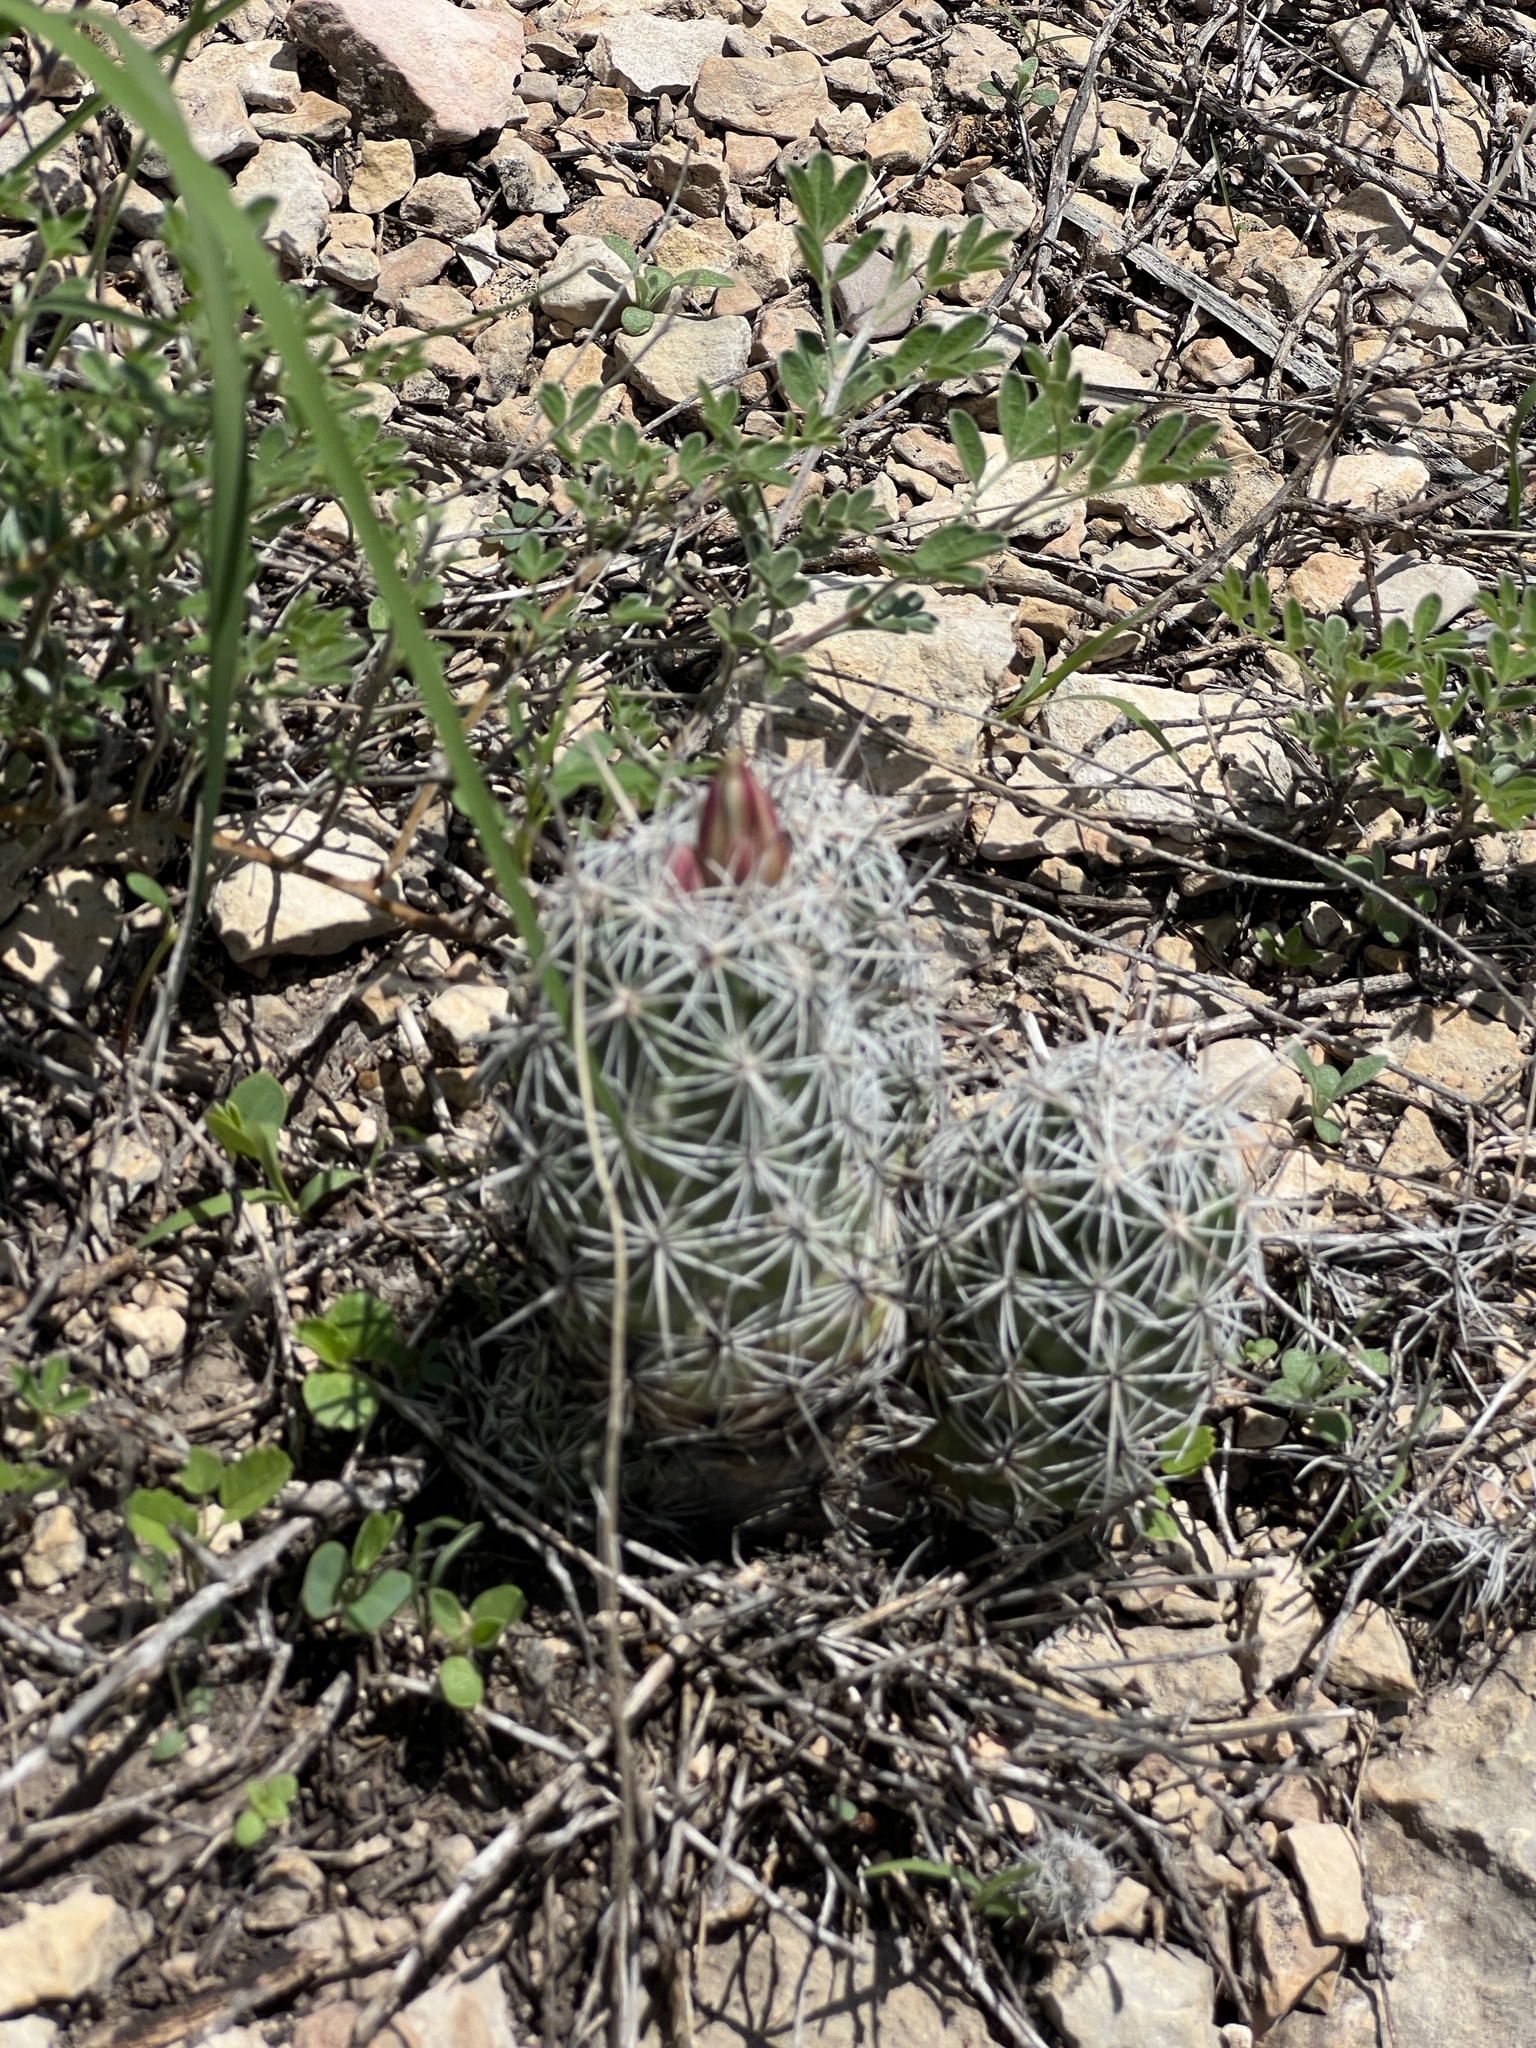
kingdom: Plantae
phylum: Tracheophyta
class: Magnoliopsida
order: Caryophyllales
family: Cactaceae
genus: Cochemiea
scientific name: Cochemiea conoidea
